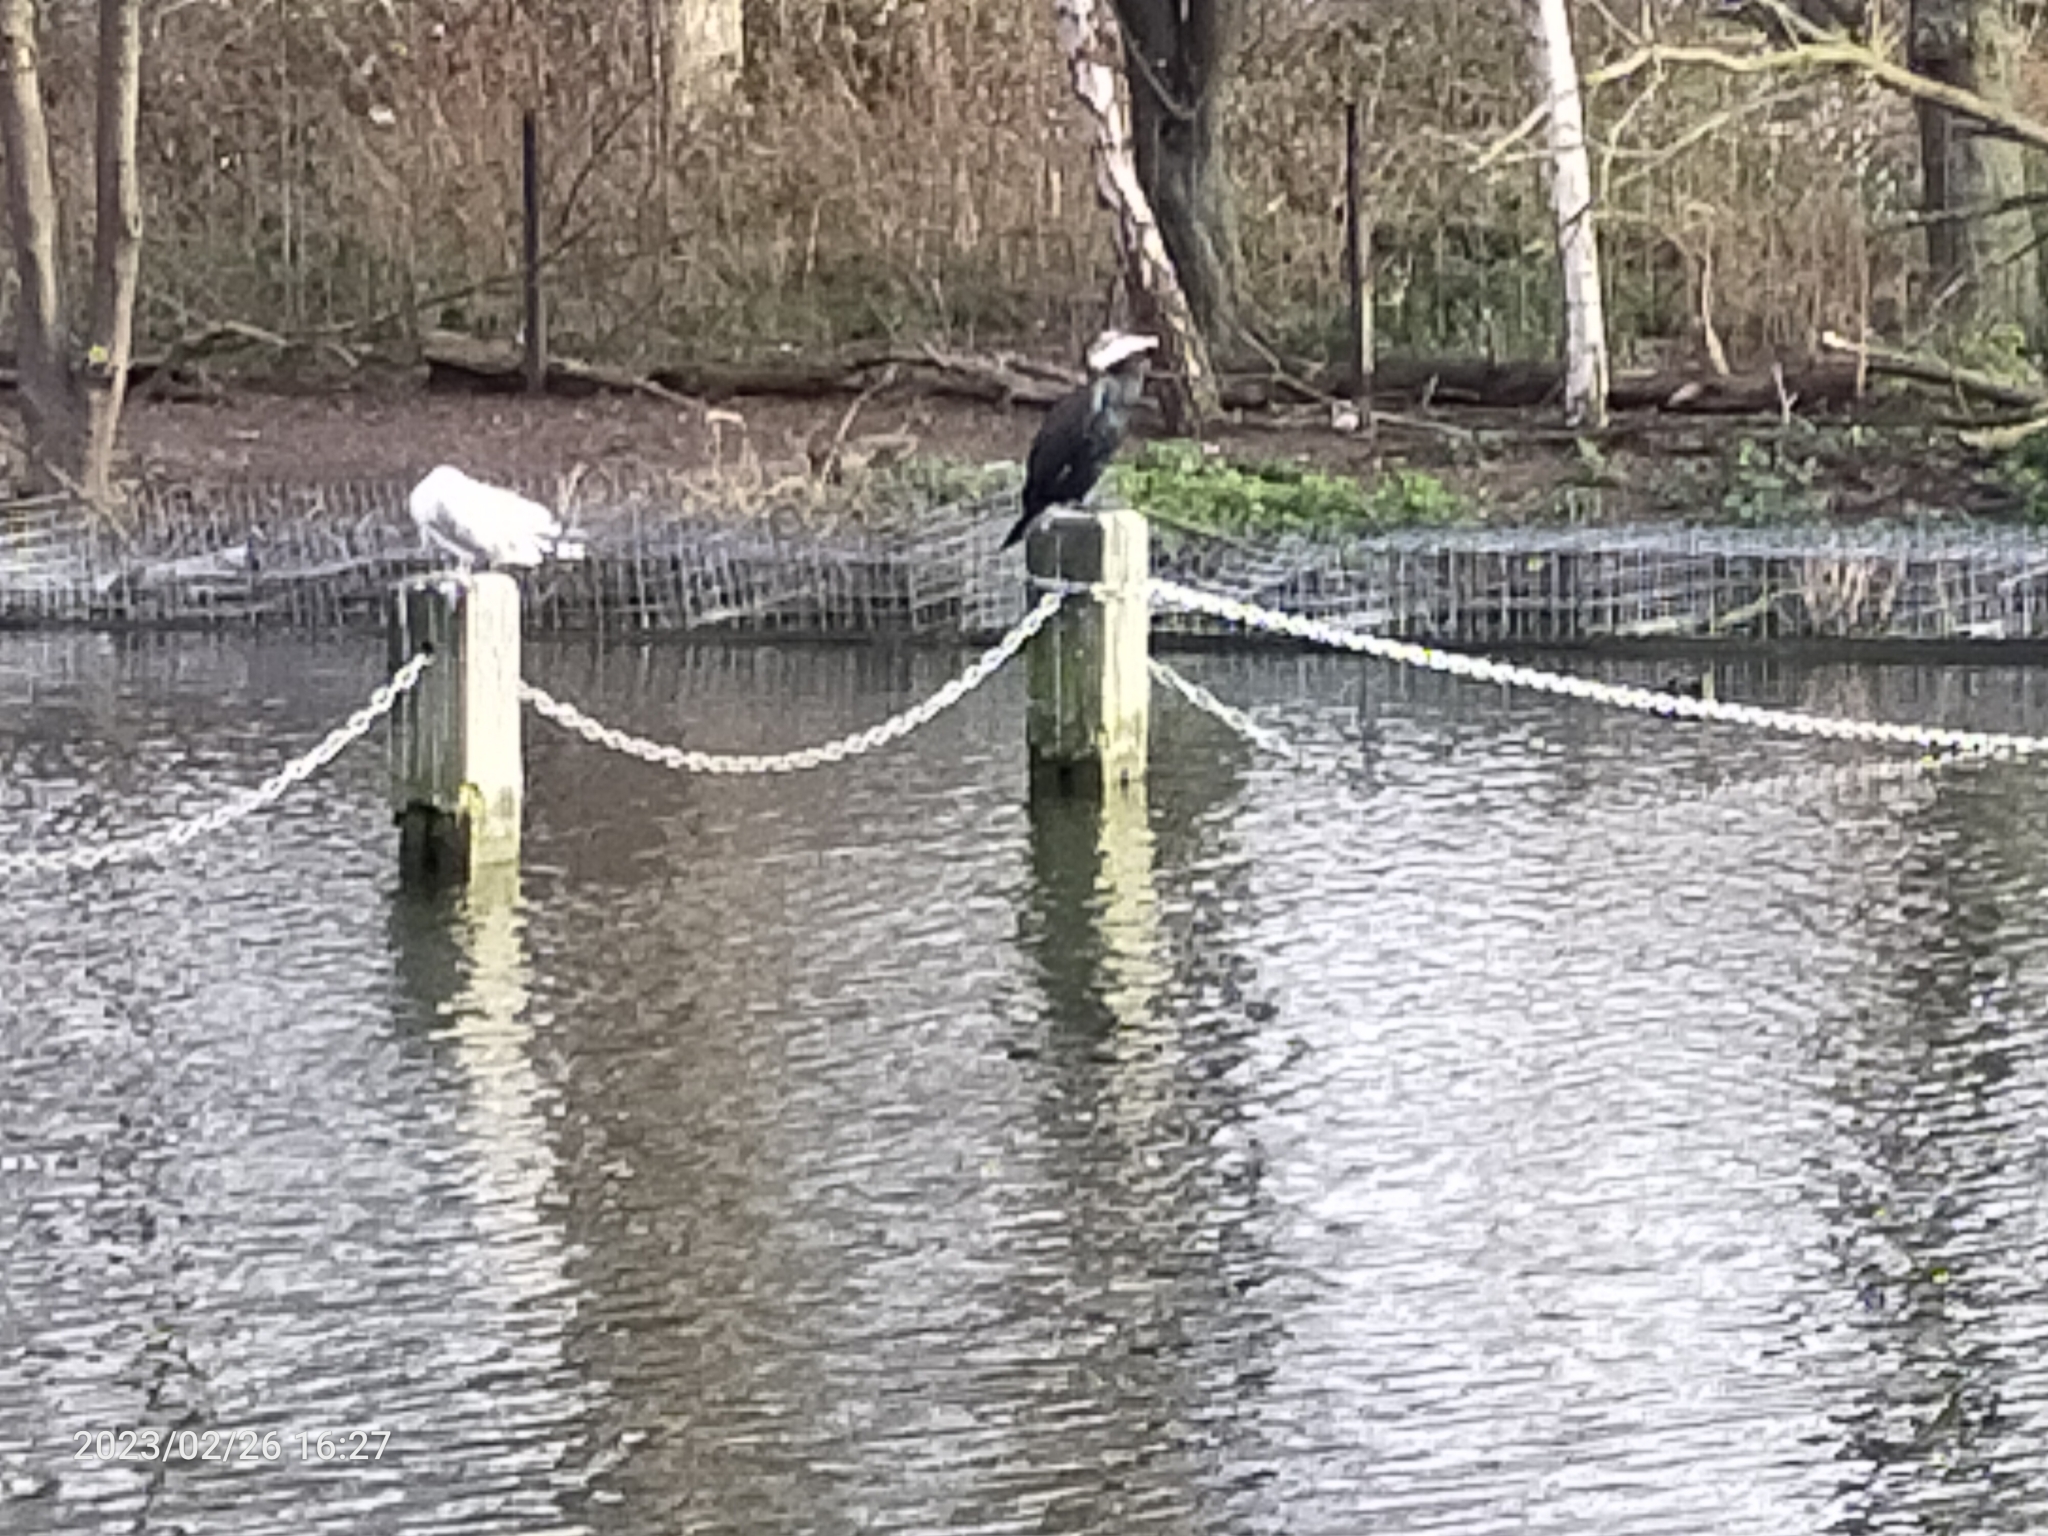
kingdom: Animalia
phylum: Chordata
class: Aves
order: Suliformes
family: Phalacrocoracidae
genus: Phalacrocorax
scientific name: Phalacrocorax carbo
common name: Great cormorant
